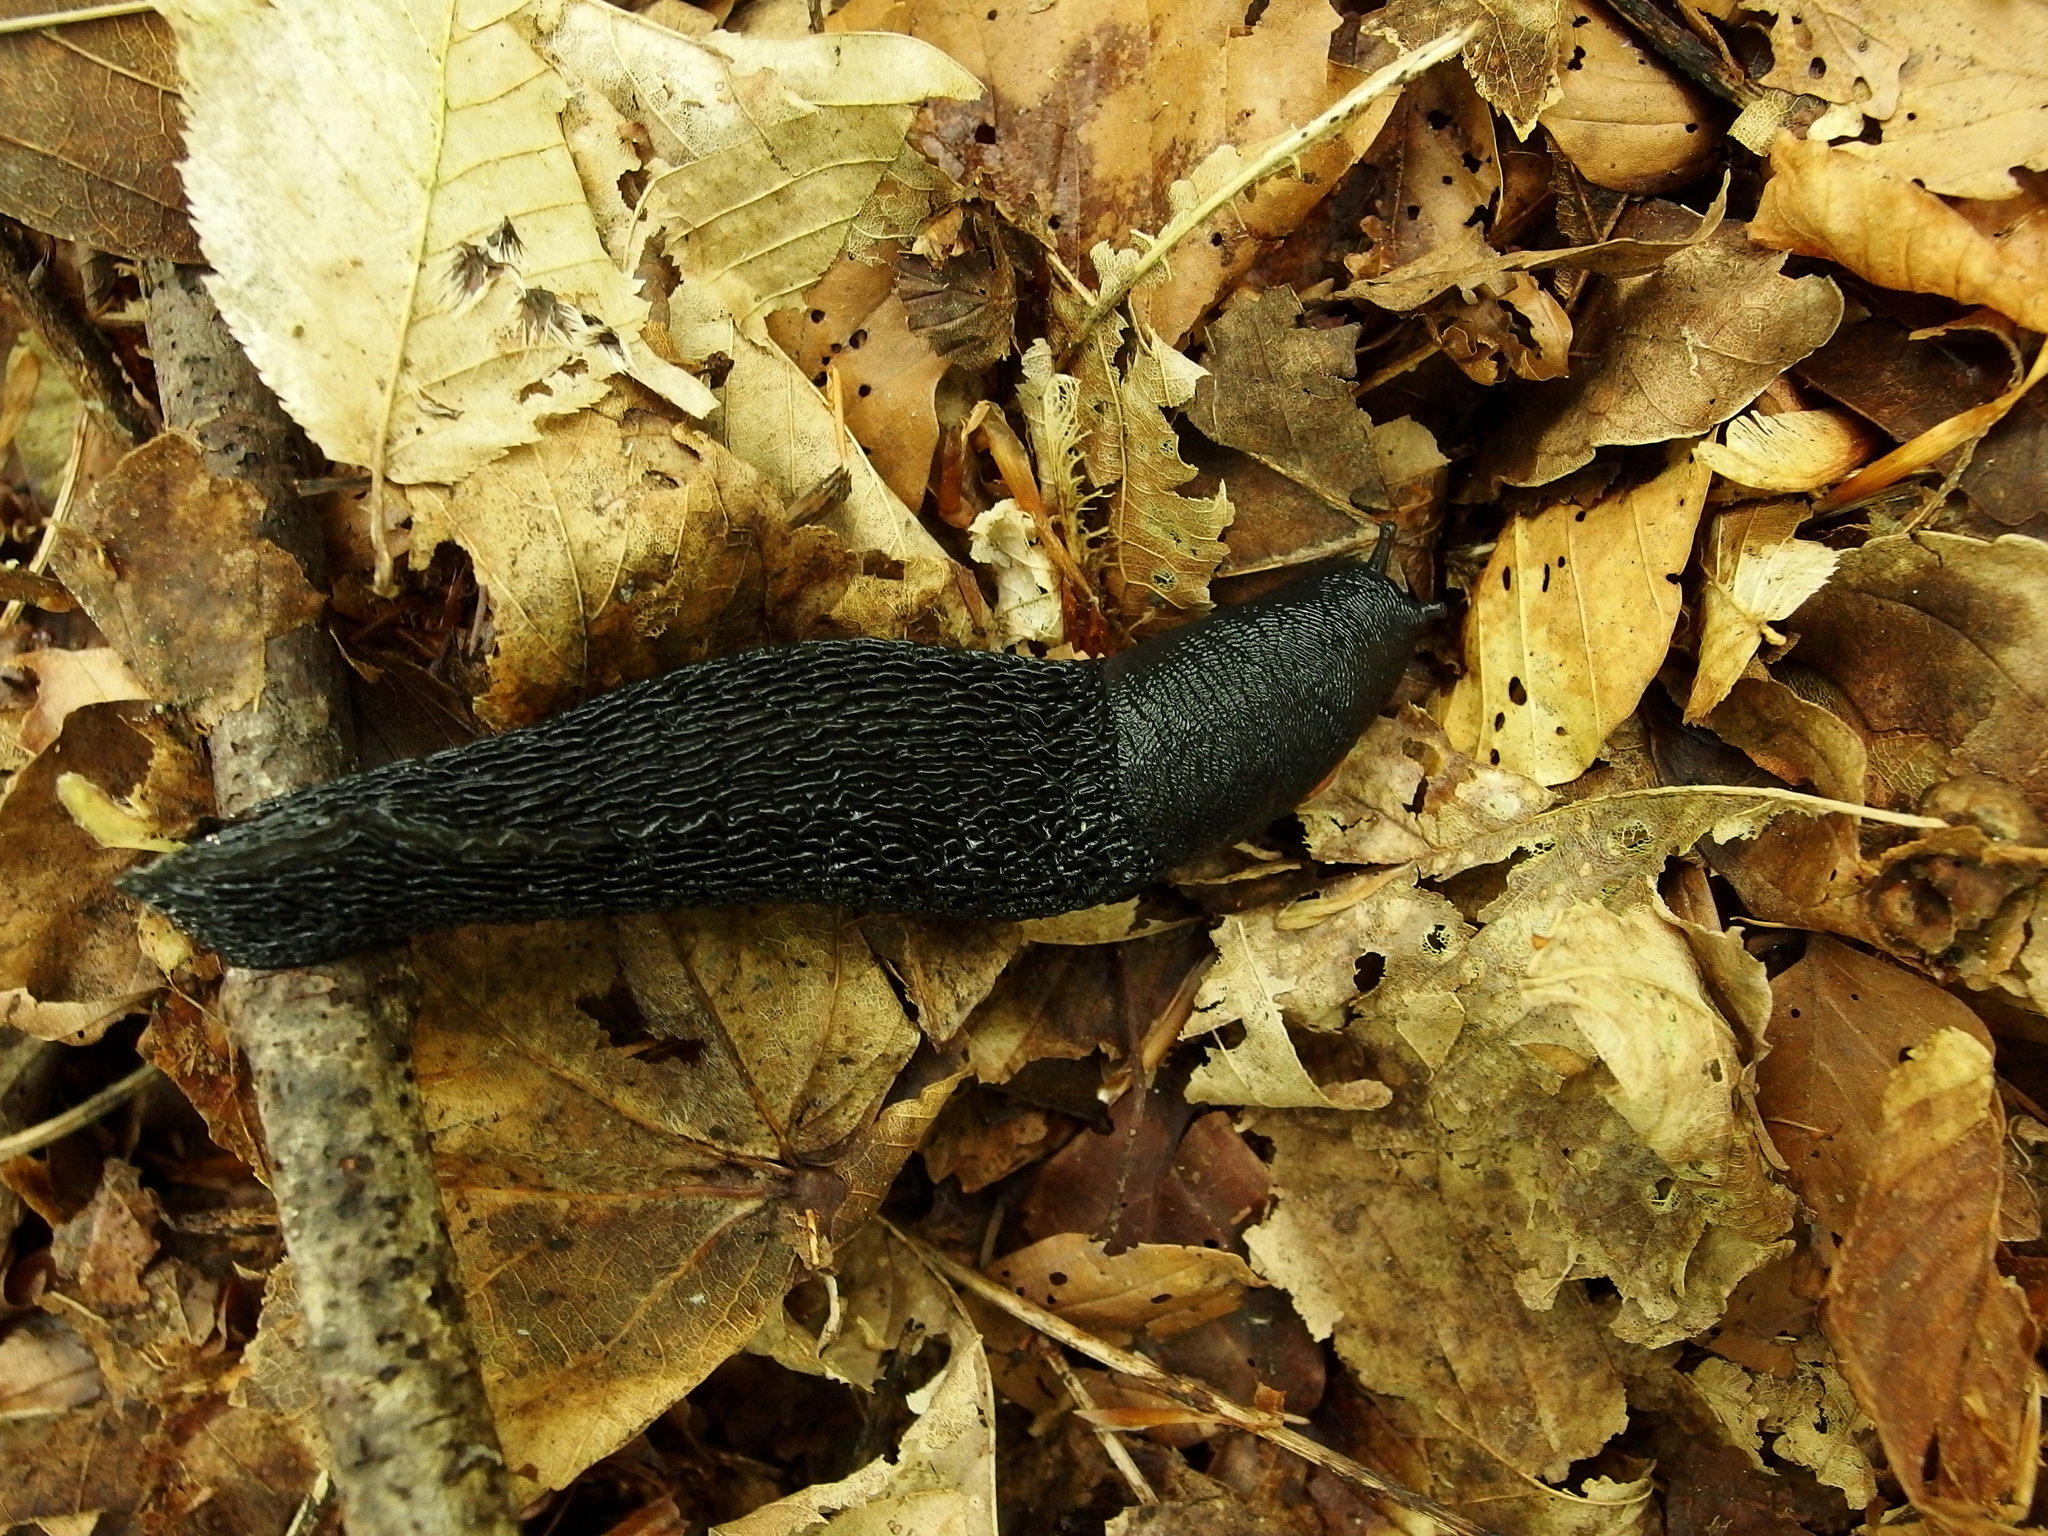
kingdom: Animalia
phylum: Mollusca
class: Gastropoda
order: Stylommatophora
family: Limacidae
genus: Limax
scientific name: Limax cinereoniger
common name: Ash-black slug
